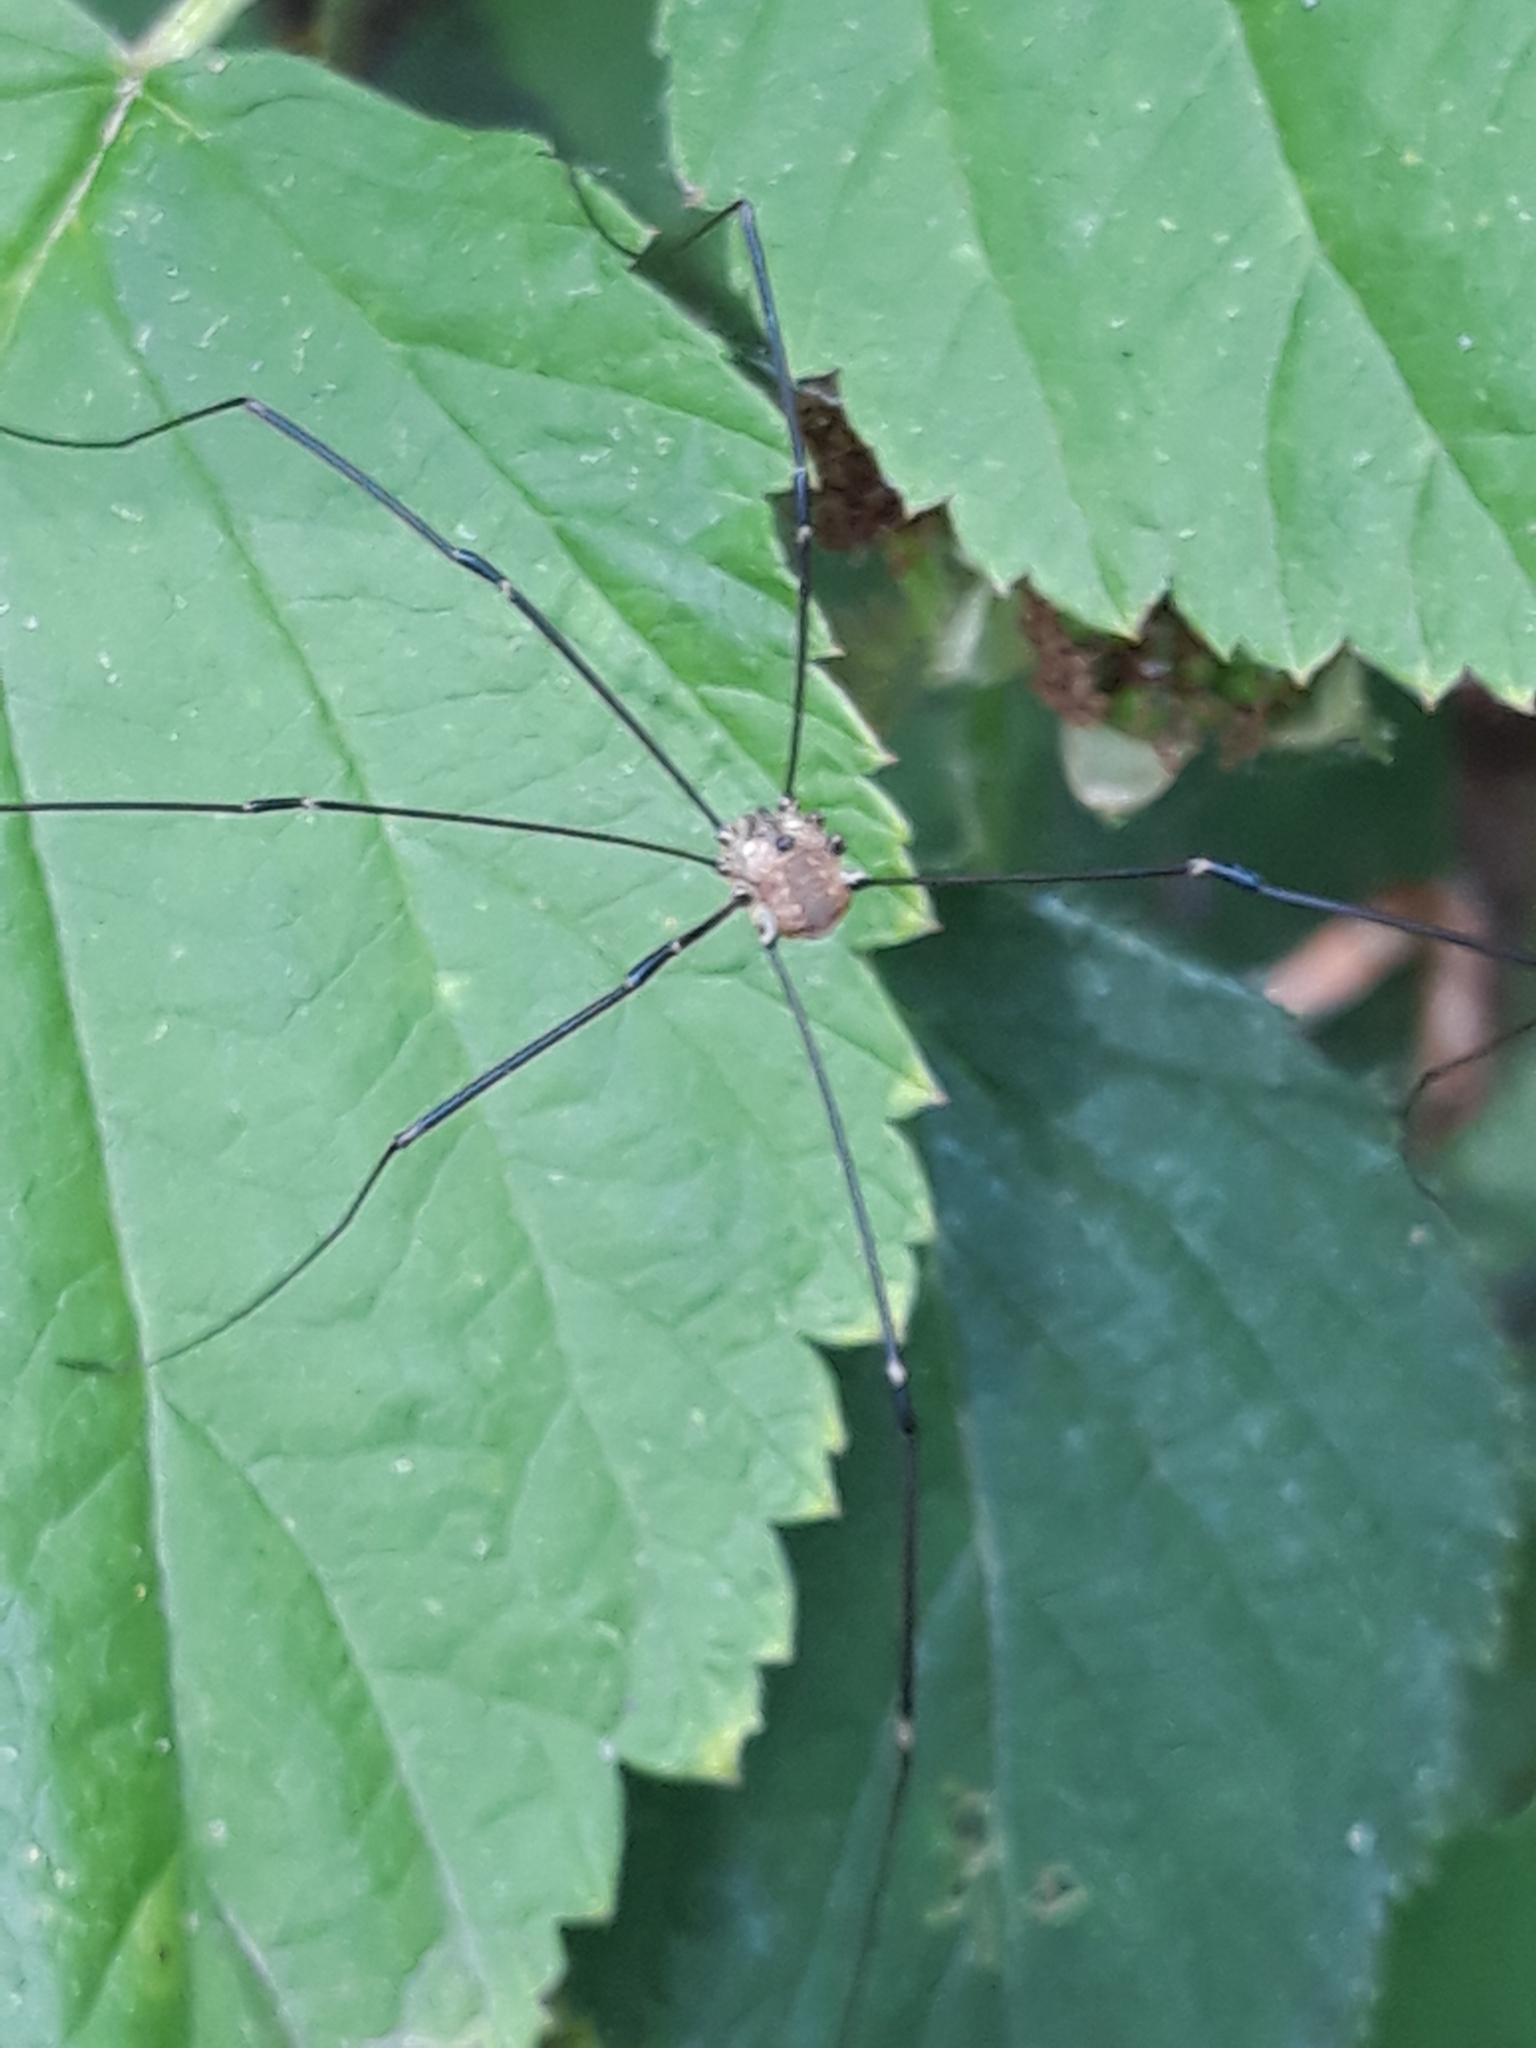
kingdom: Animalia
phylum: Arthropoda
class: Arachnida
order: Opiliones
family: Sclerosomatidae
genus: Leiobunum
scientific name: Leiobunum rotundum
